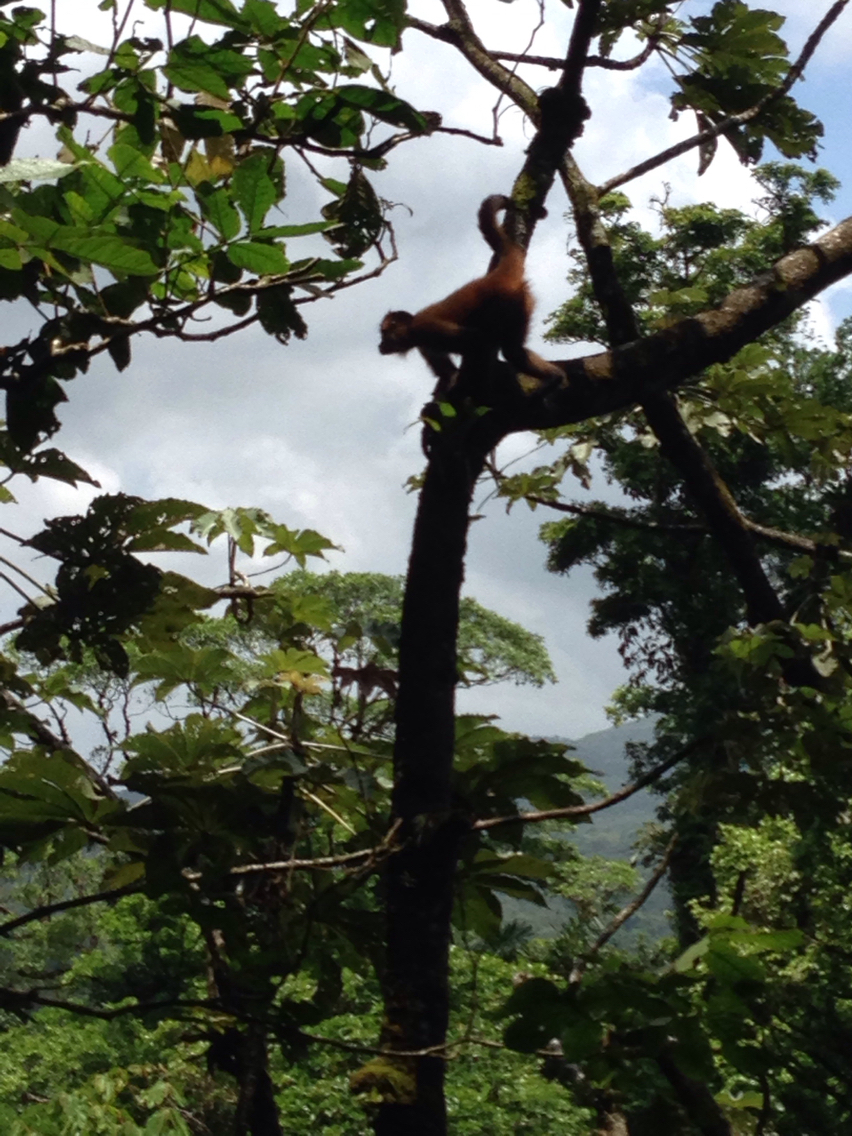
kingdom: Animalia
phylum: Chordata
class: Mammalia
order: Primates
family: Atelidae
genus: Ateles
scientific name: Ateles geoffroyi
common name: Black-handed spider monkey
